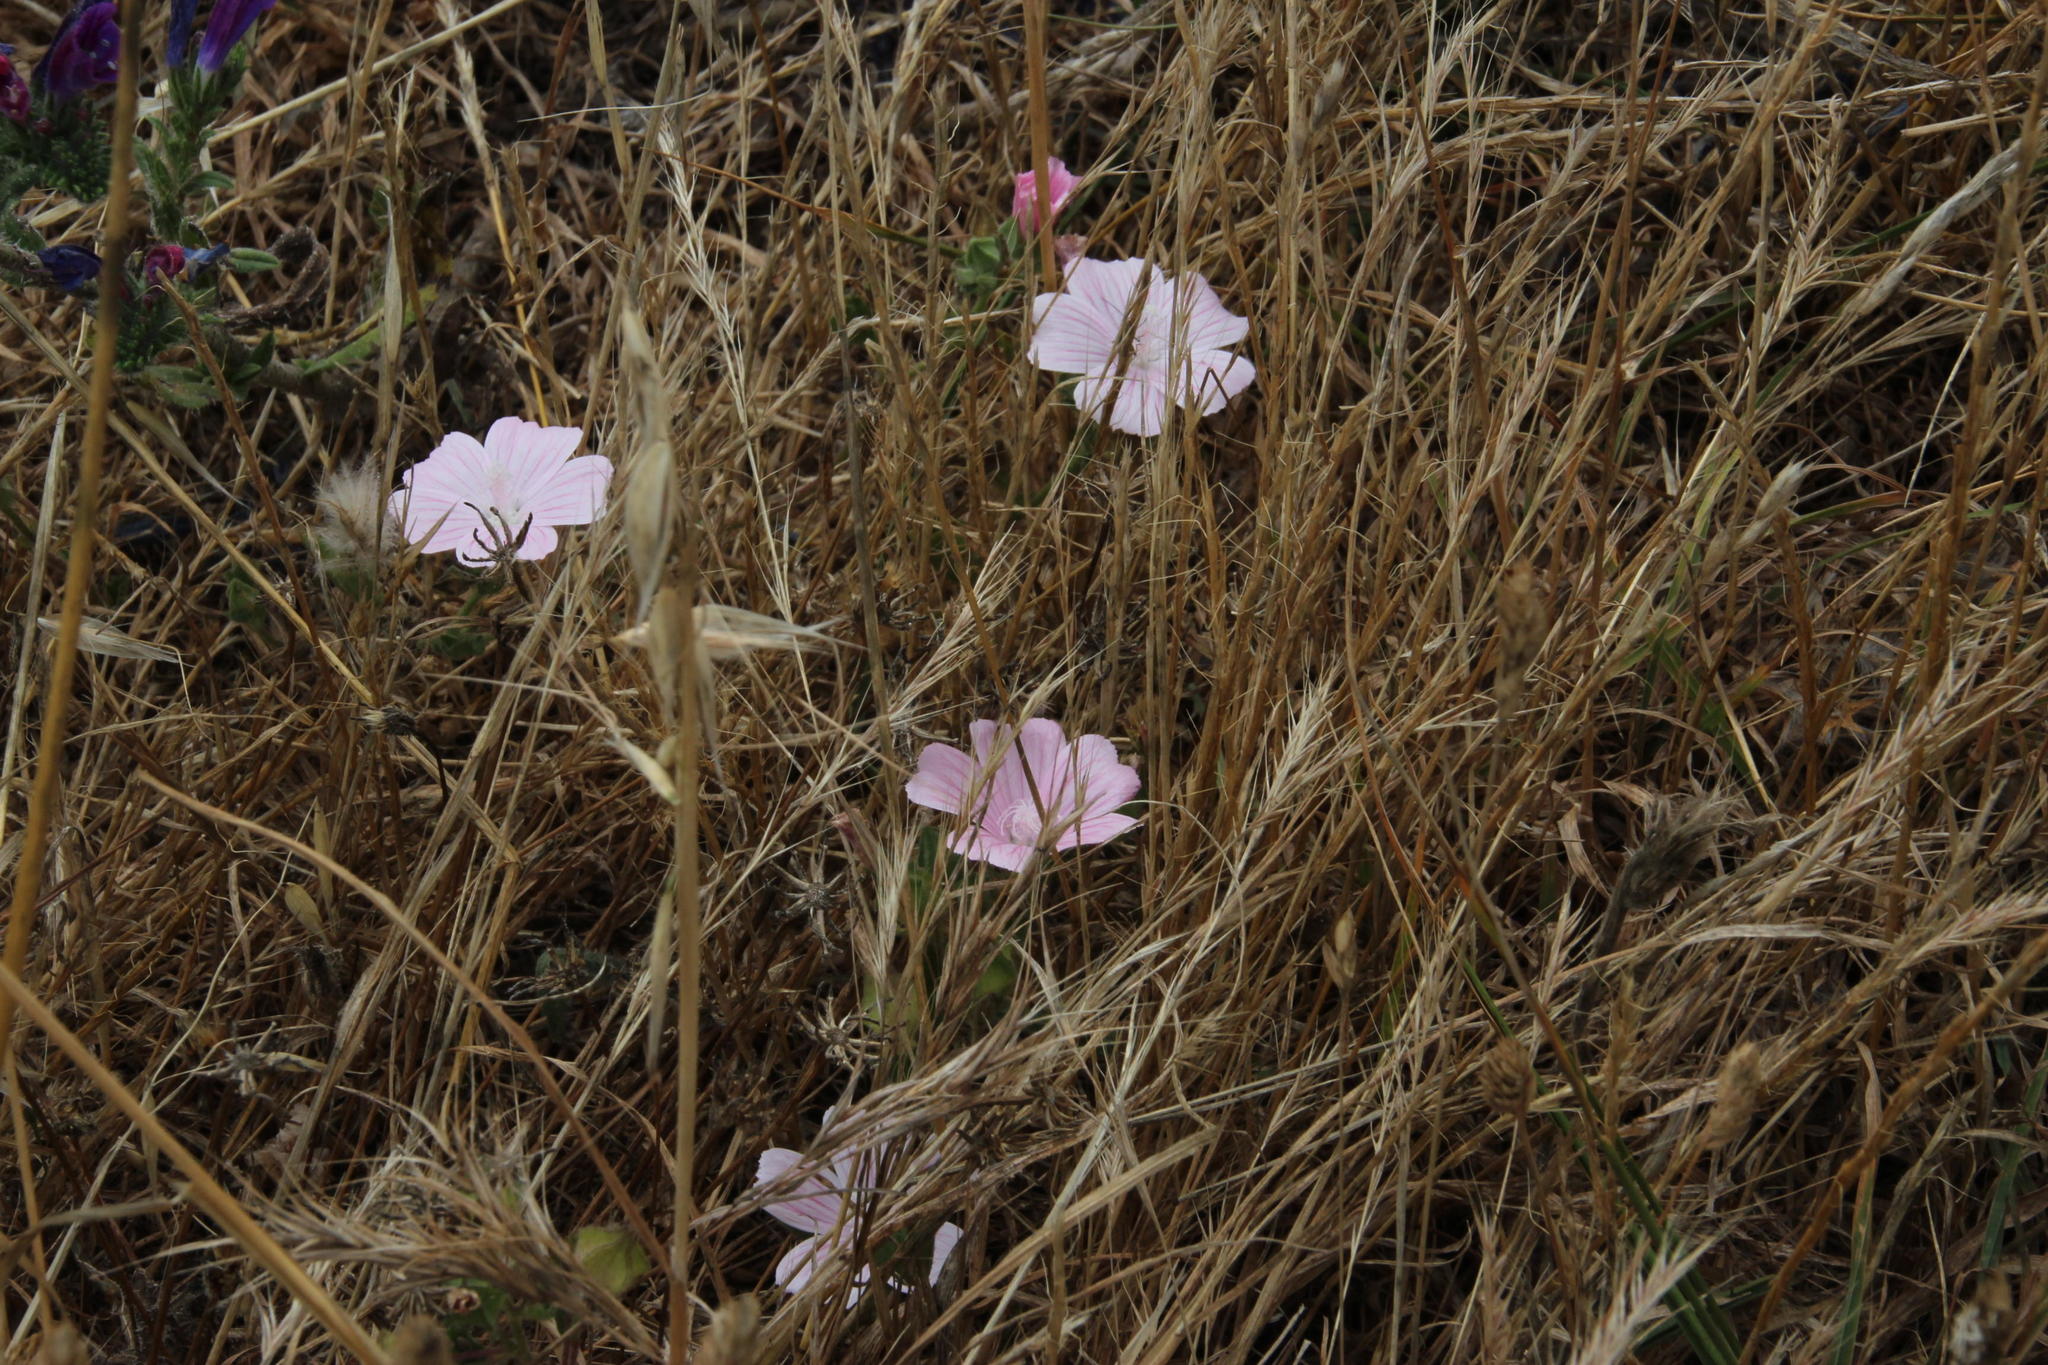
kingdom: Plantae
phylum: Tracheophyta
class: Magnoliopsida
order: Malvales
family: Malvaceae
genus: Malva
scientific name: Malva hispanica
